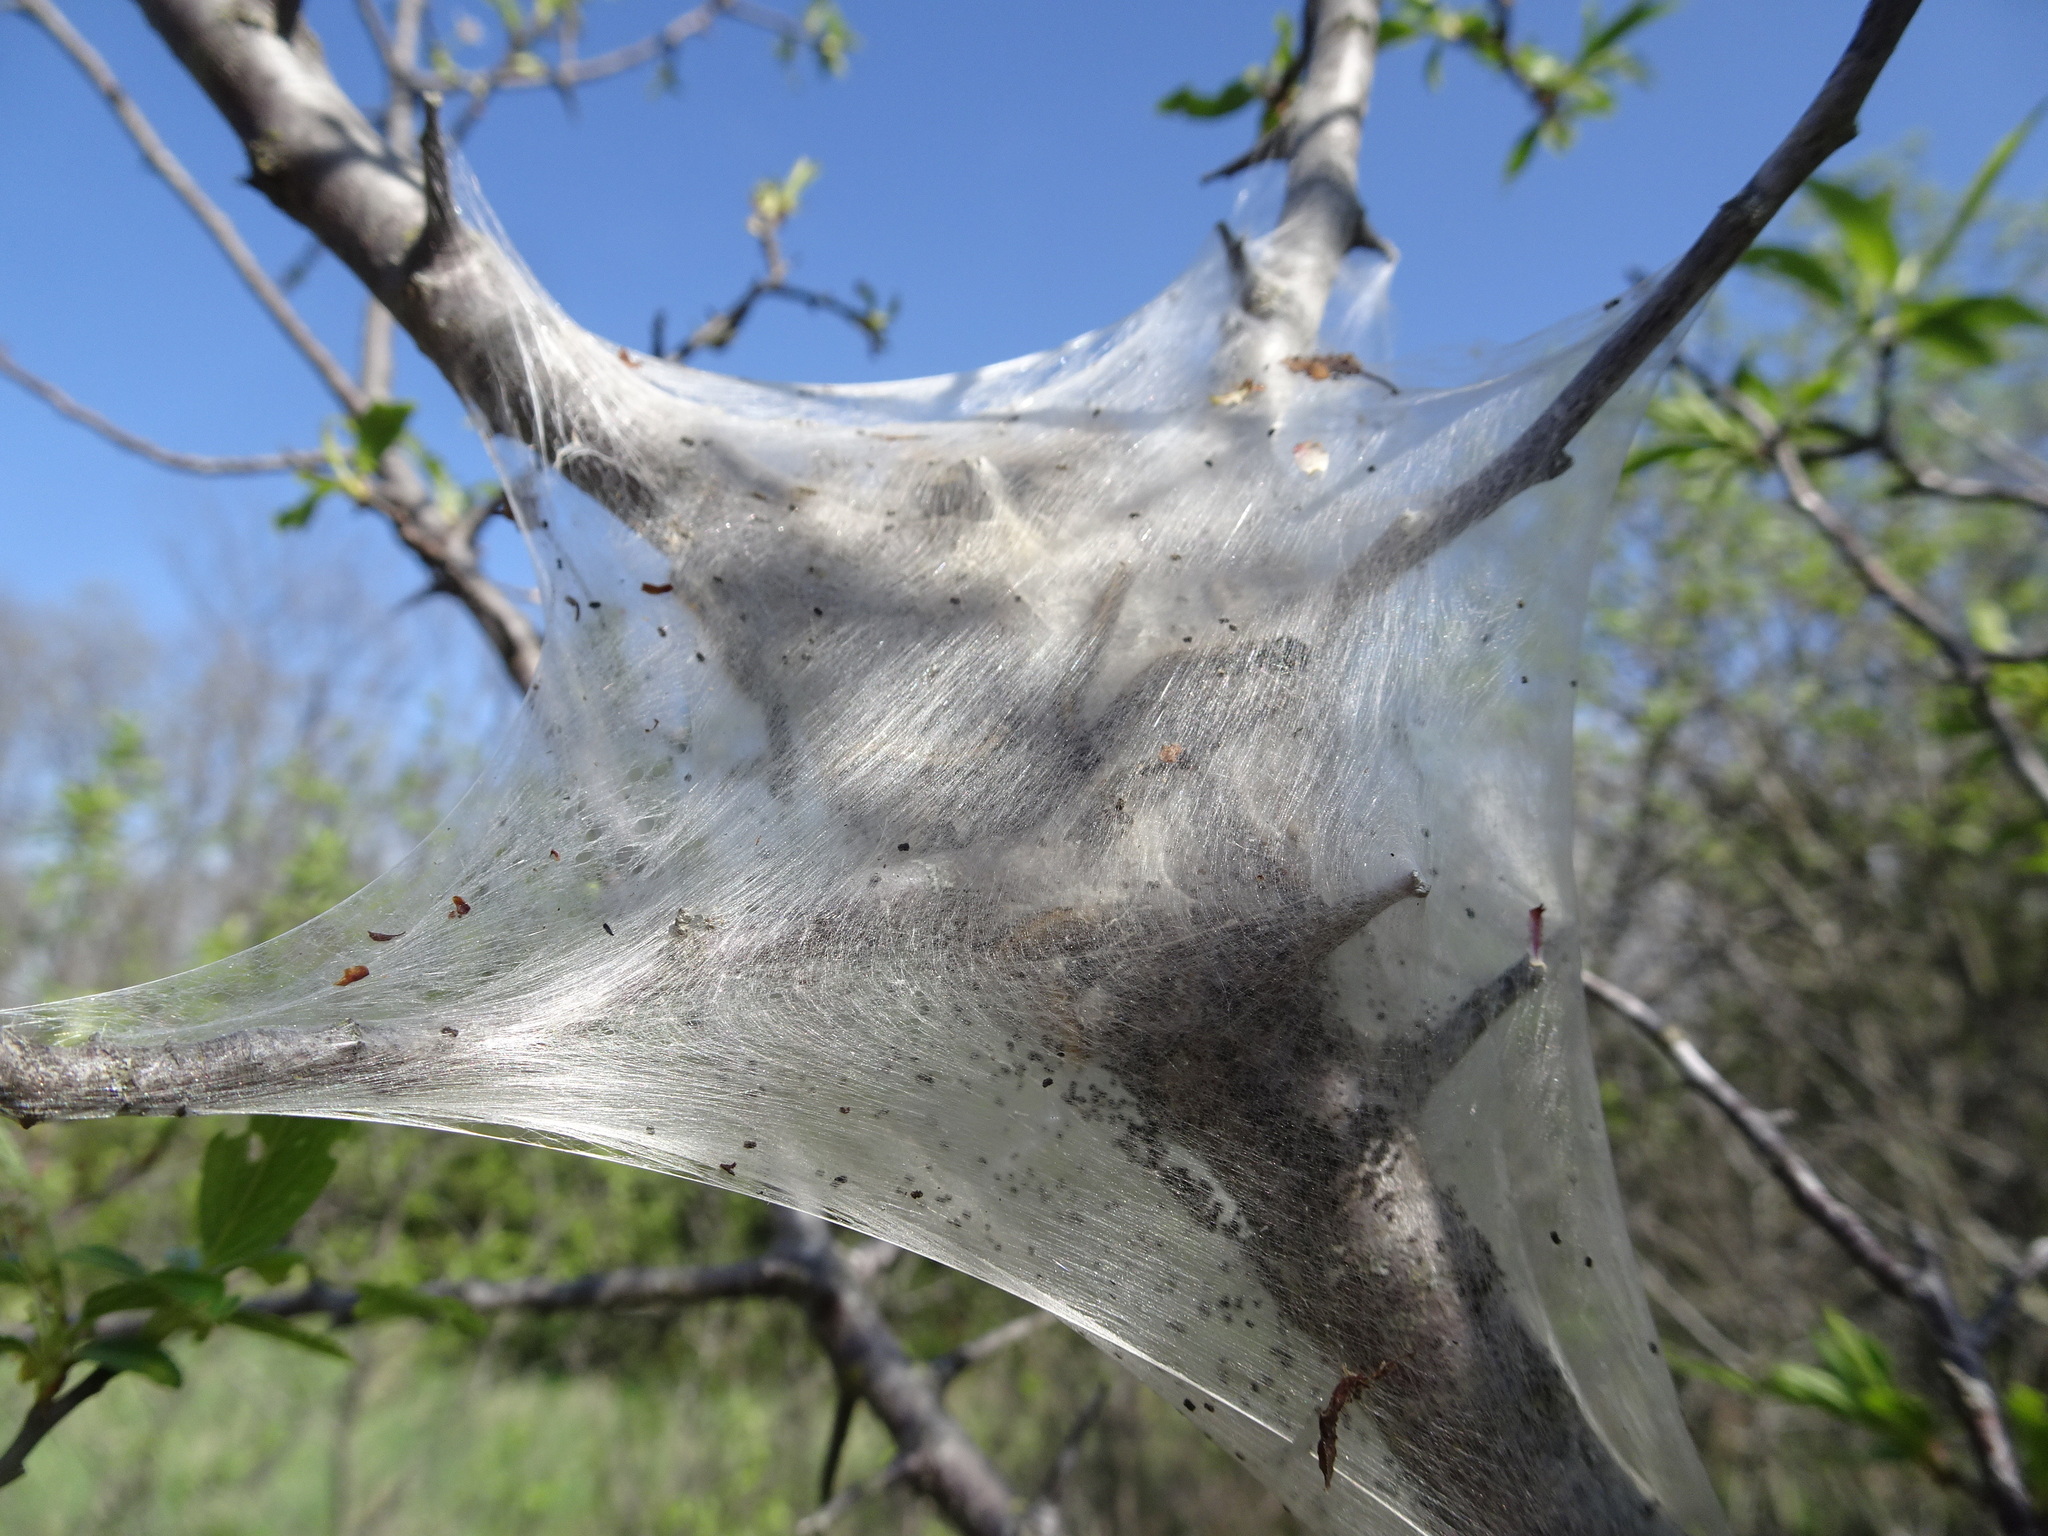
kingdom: Animalia
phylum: Arthropoda
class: Insecta
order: Lepidoptera
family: Lasiocampidae
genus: Malacosoma
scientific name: Malacosoma americana
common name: Eastern tent caterpillar moth
